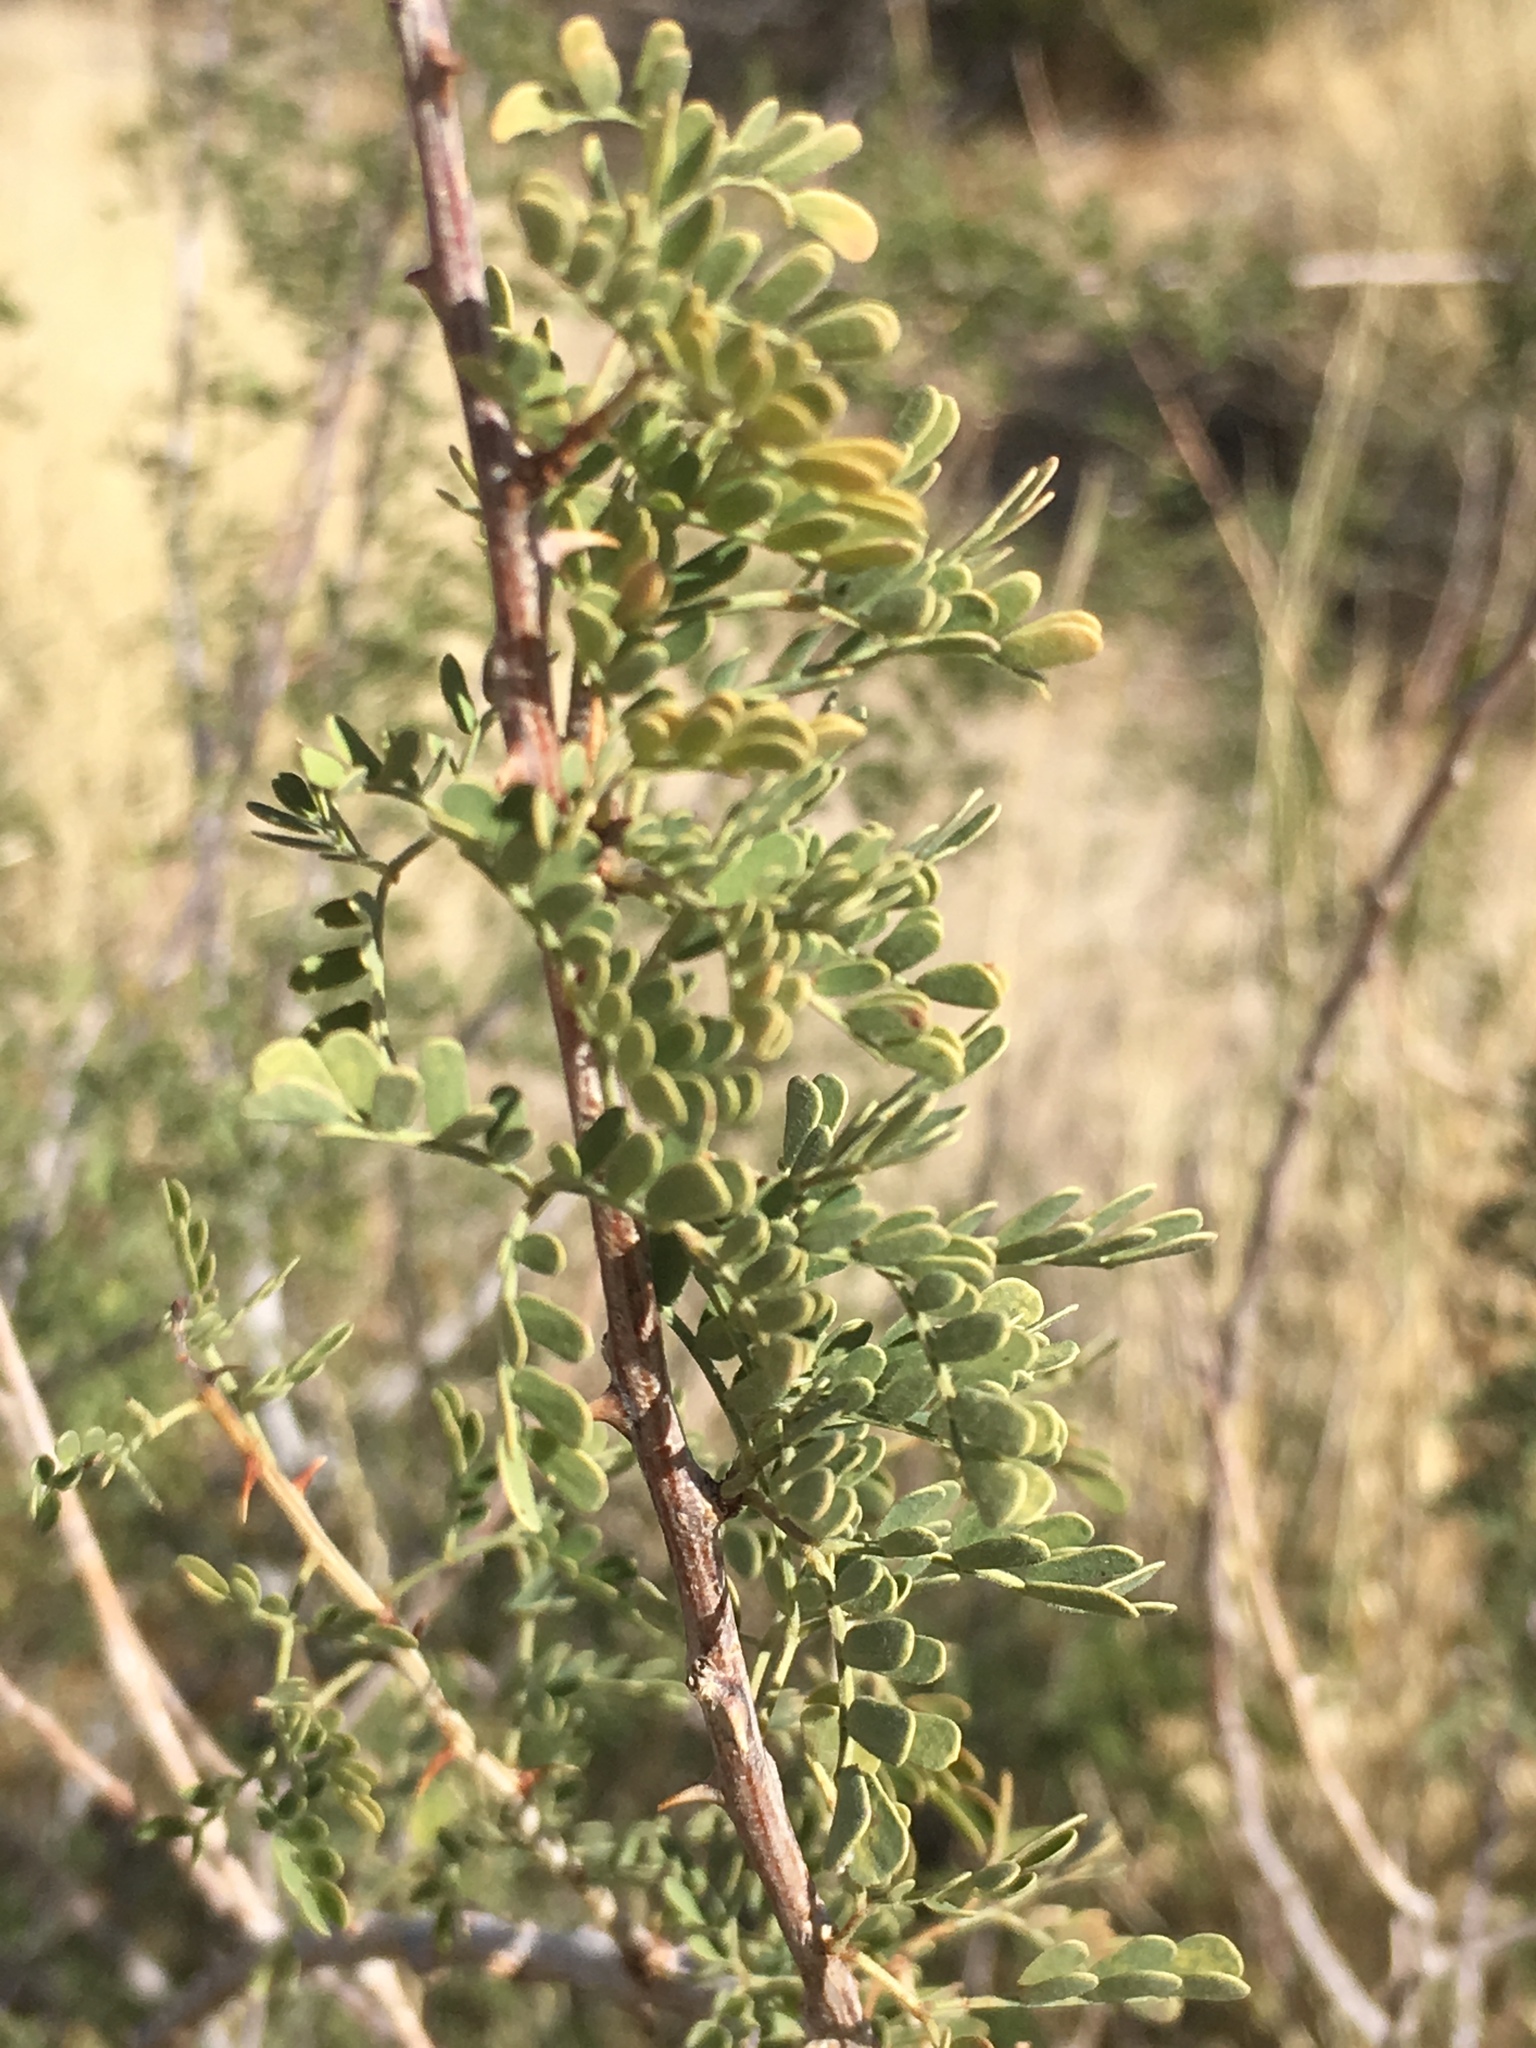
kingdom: Plantae
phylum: Tracheophyta
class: Magnoliopsida
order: Fabales
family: Fabaceae
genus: Senegalia
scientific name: Senegalia greggii
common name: Texas-mimosa
